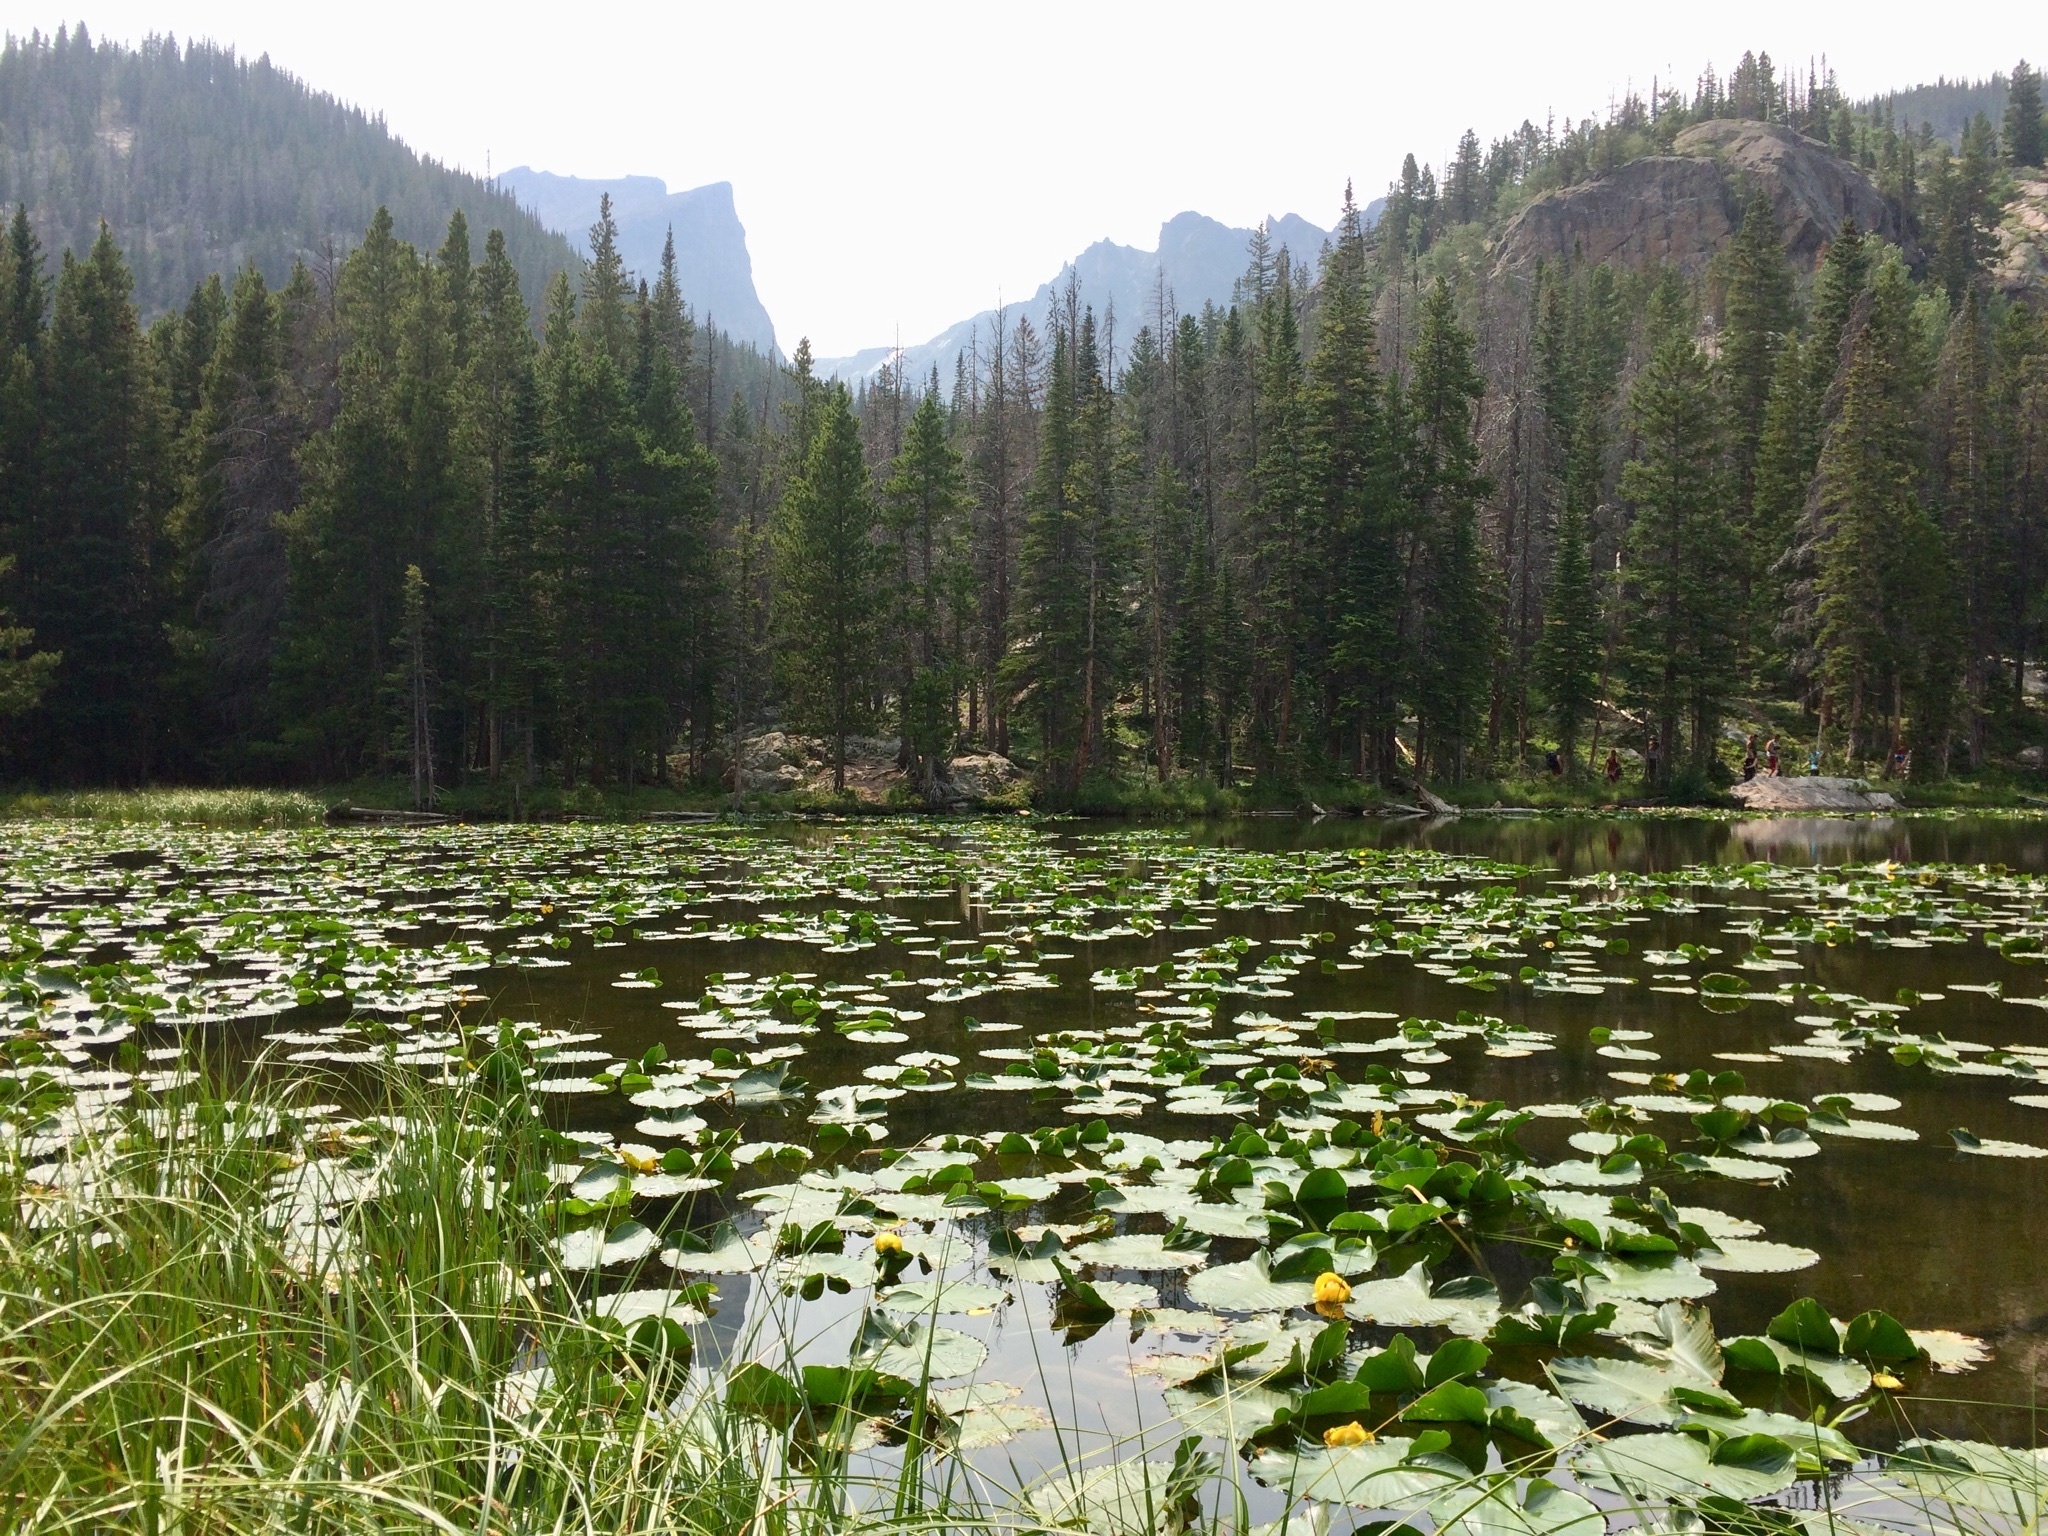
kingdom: Plantae
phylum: Tracheophyta
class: Magnoliopsida
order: Nymphaeales
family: Nymphaeaceae
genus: Nuphar
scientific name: Nuphar polysepala
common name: Rocky mountain cow-lily
